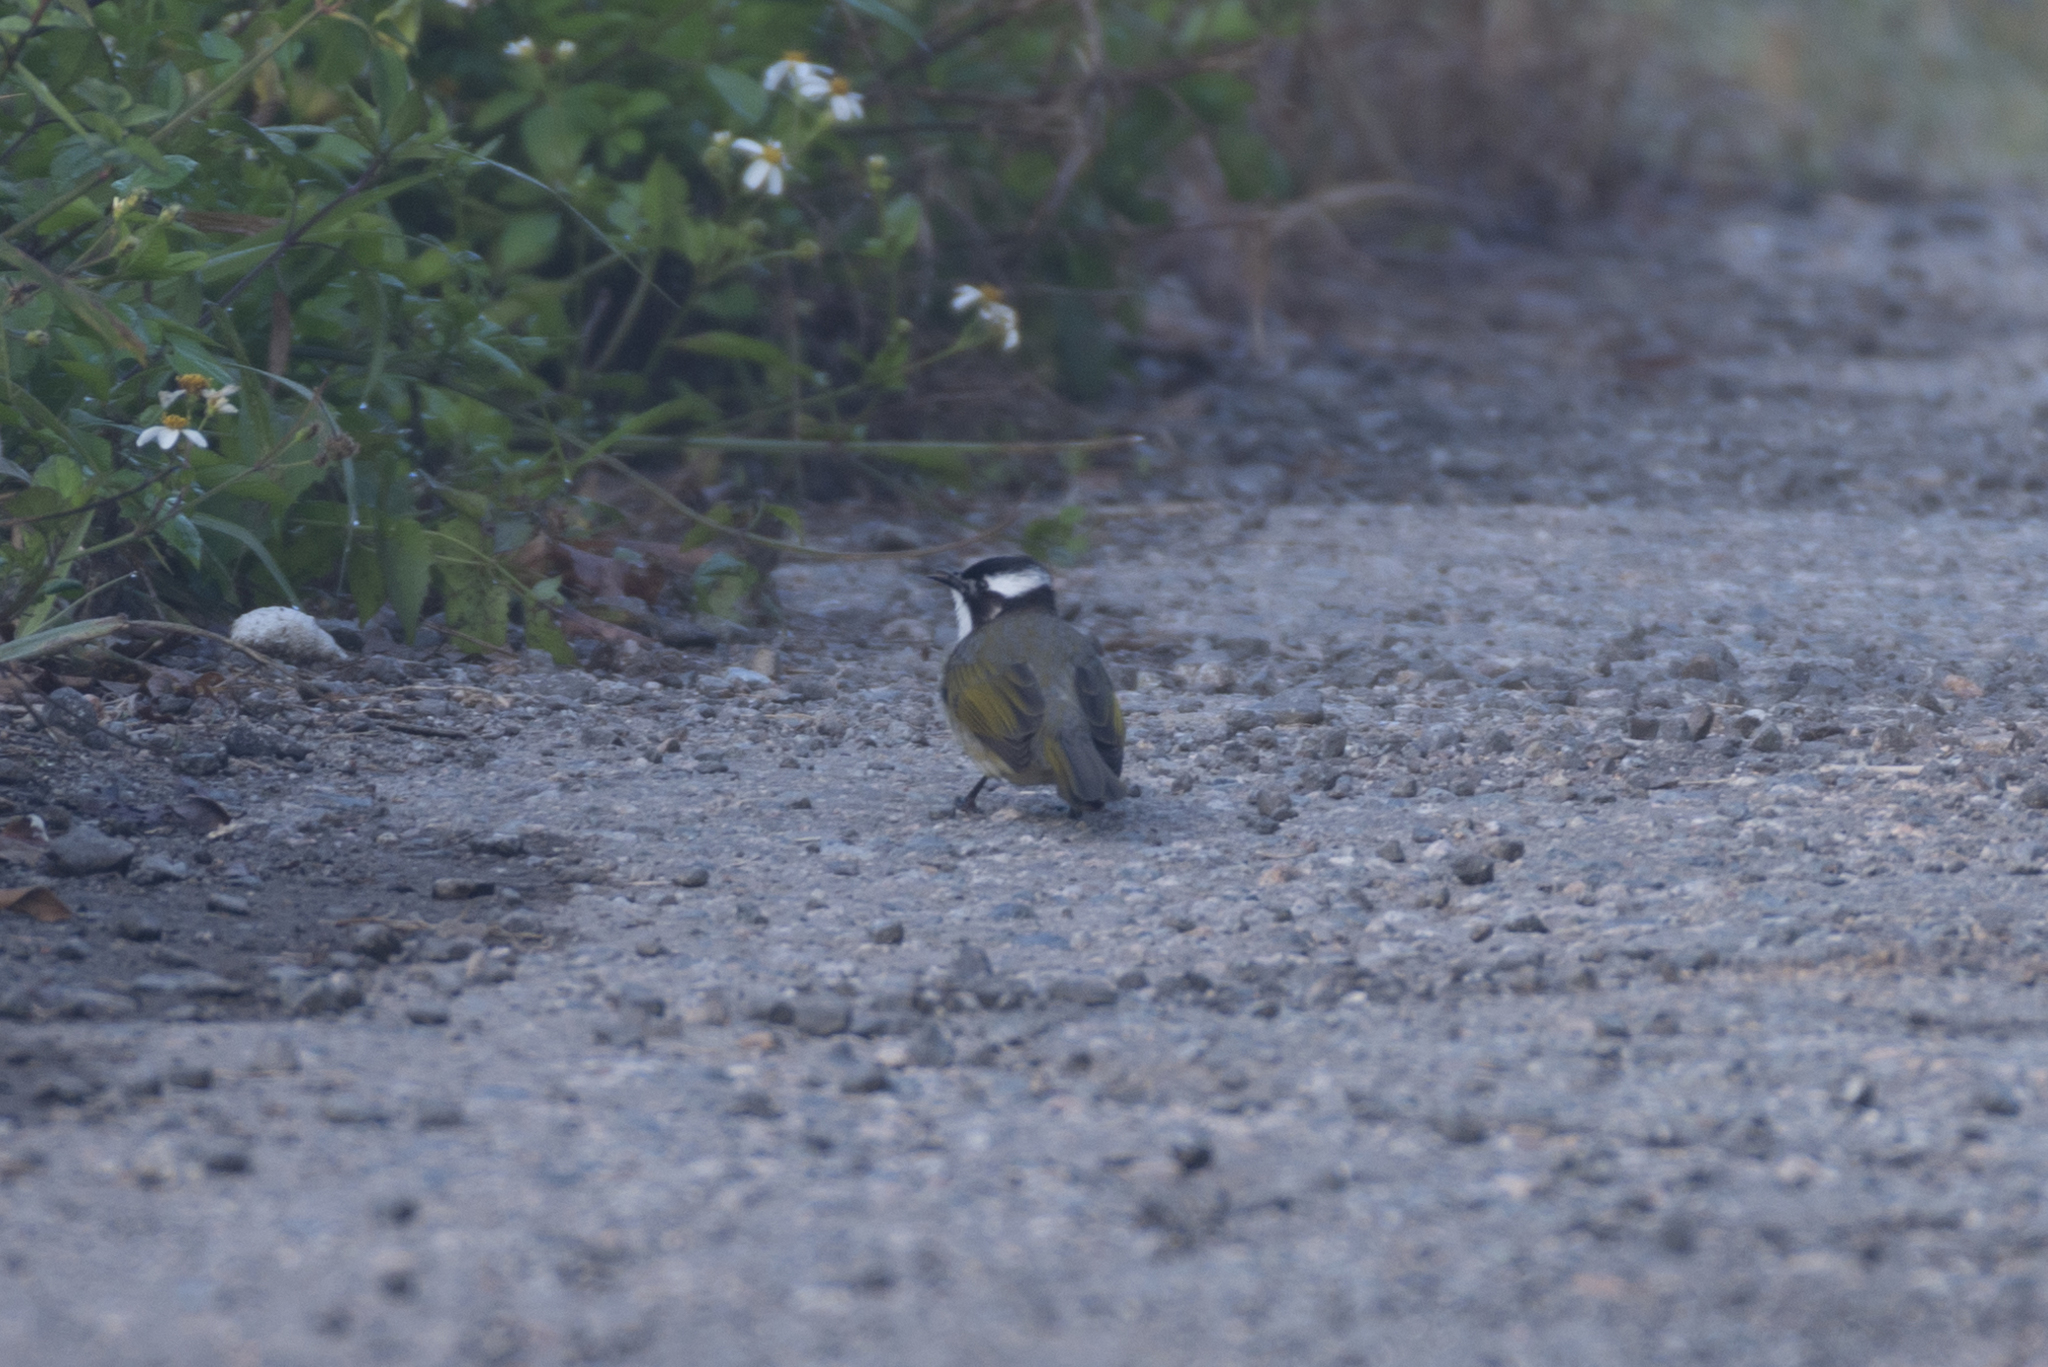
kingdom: Animalia
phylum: Chordata
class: Aves
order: Passeriformes
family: Pycnonotidae
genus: Pycnonotus
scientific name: Pycnonotus sinensis
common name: Light-vented bulbul
